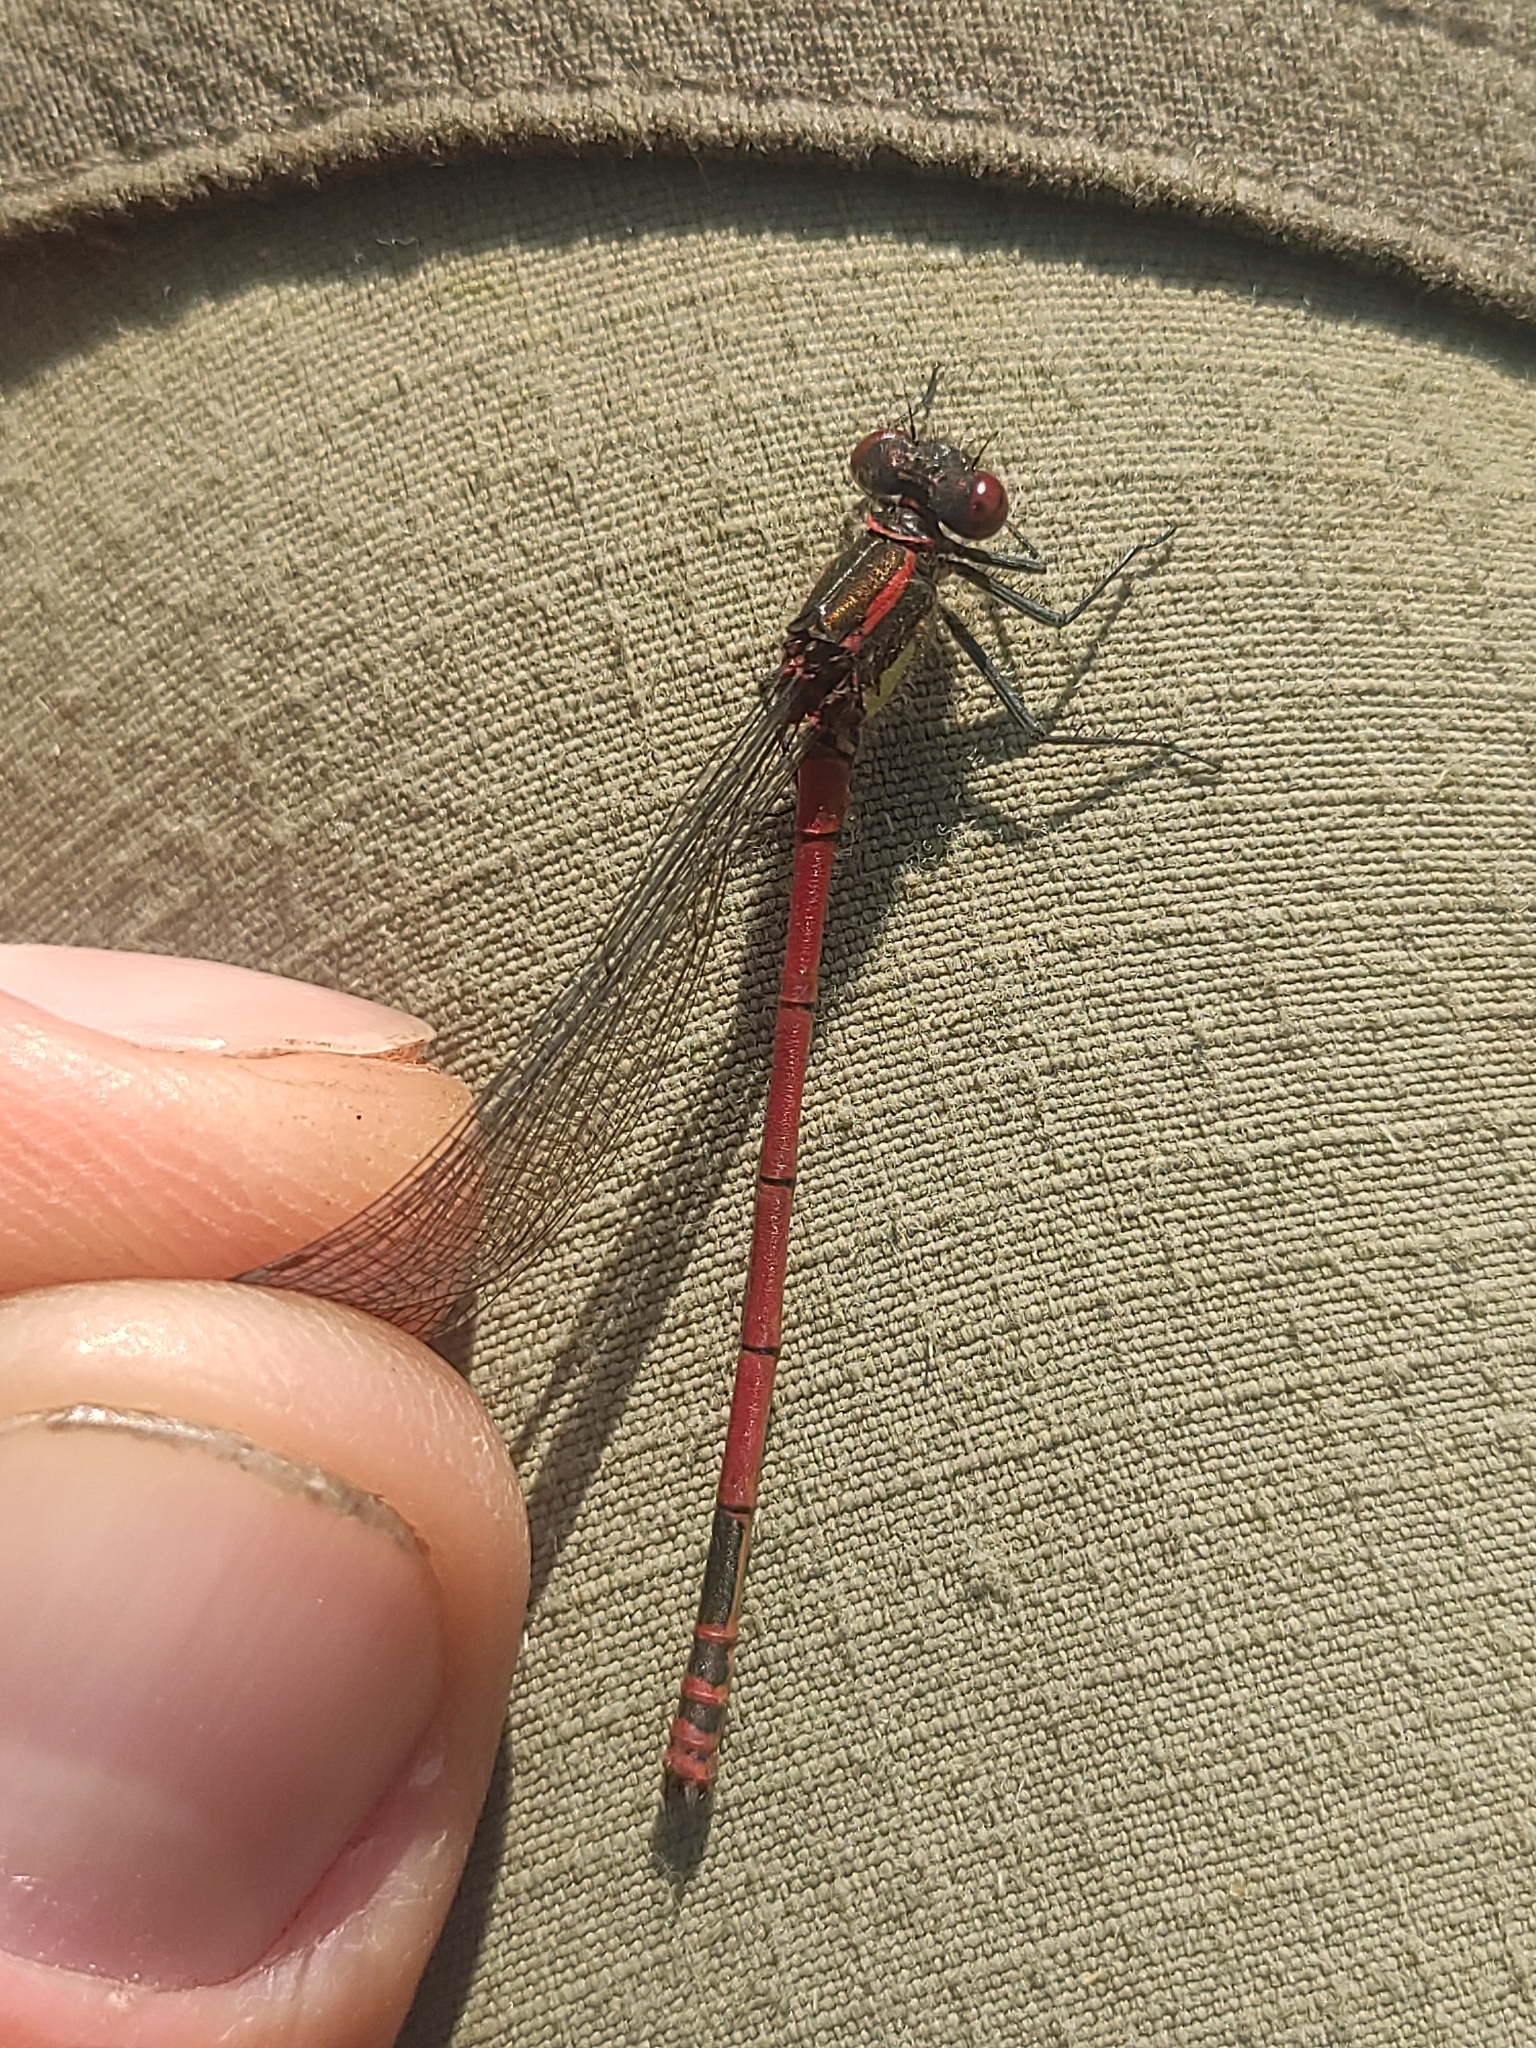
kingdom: Animalia
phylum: Arthropoda
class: Insecta
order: Odonata
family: Coenagrionidae
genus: Pyrrhosoma
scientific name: Pyrrhosoma nymphula
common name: Large red damsel
